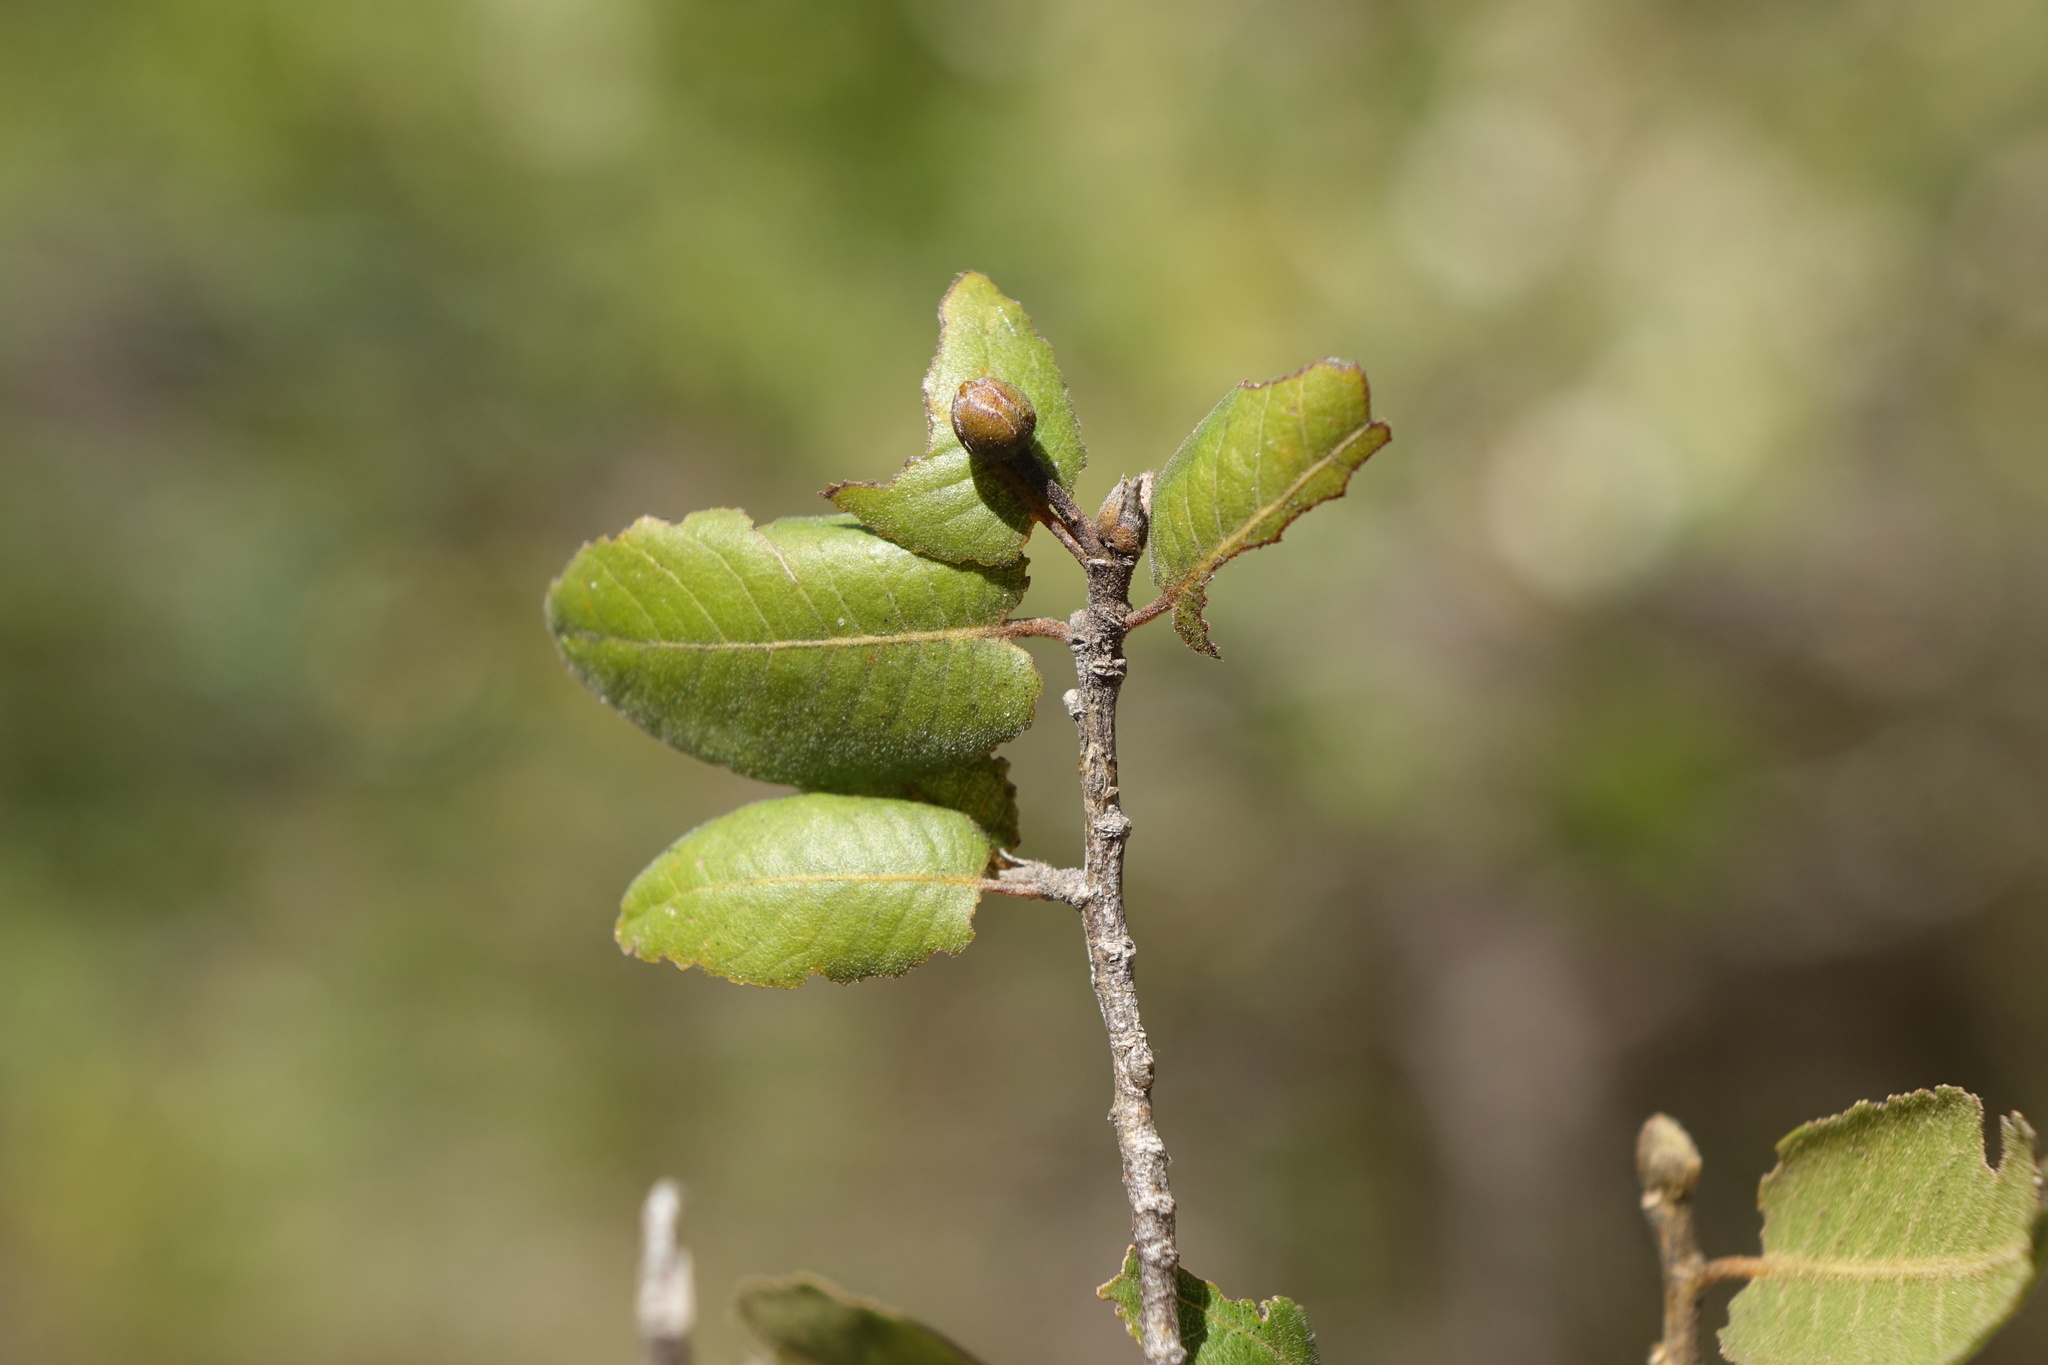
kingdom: Plantae
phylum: Tracheophyta
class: Magnoliopsida
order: Malvales
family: Sarcolaenaceae
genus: Perrierodendron
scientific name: Perrierodendron boinense
